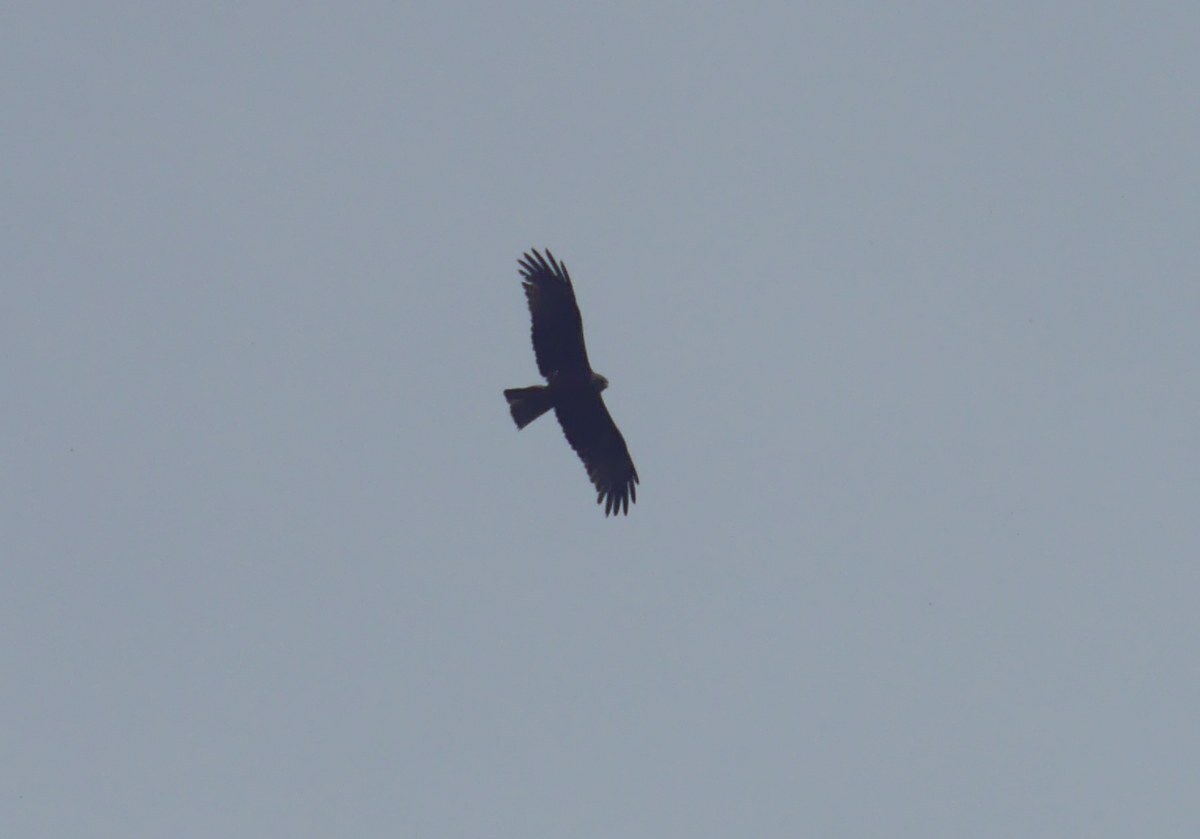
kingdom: Animalia
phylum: Chordata
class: Aves
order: Accipitriformes
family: Accipitridae
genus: Milvus
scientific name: Milvus migrans
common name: Black kite
